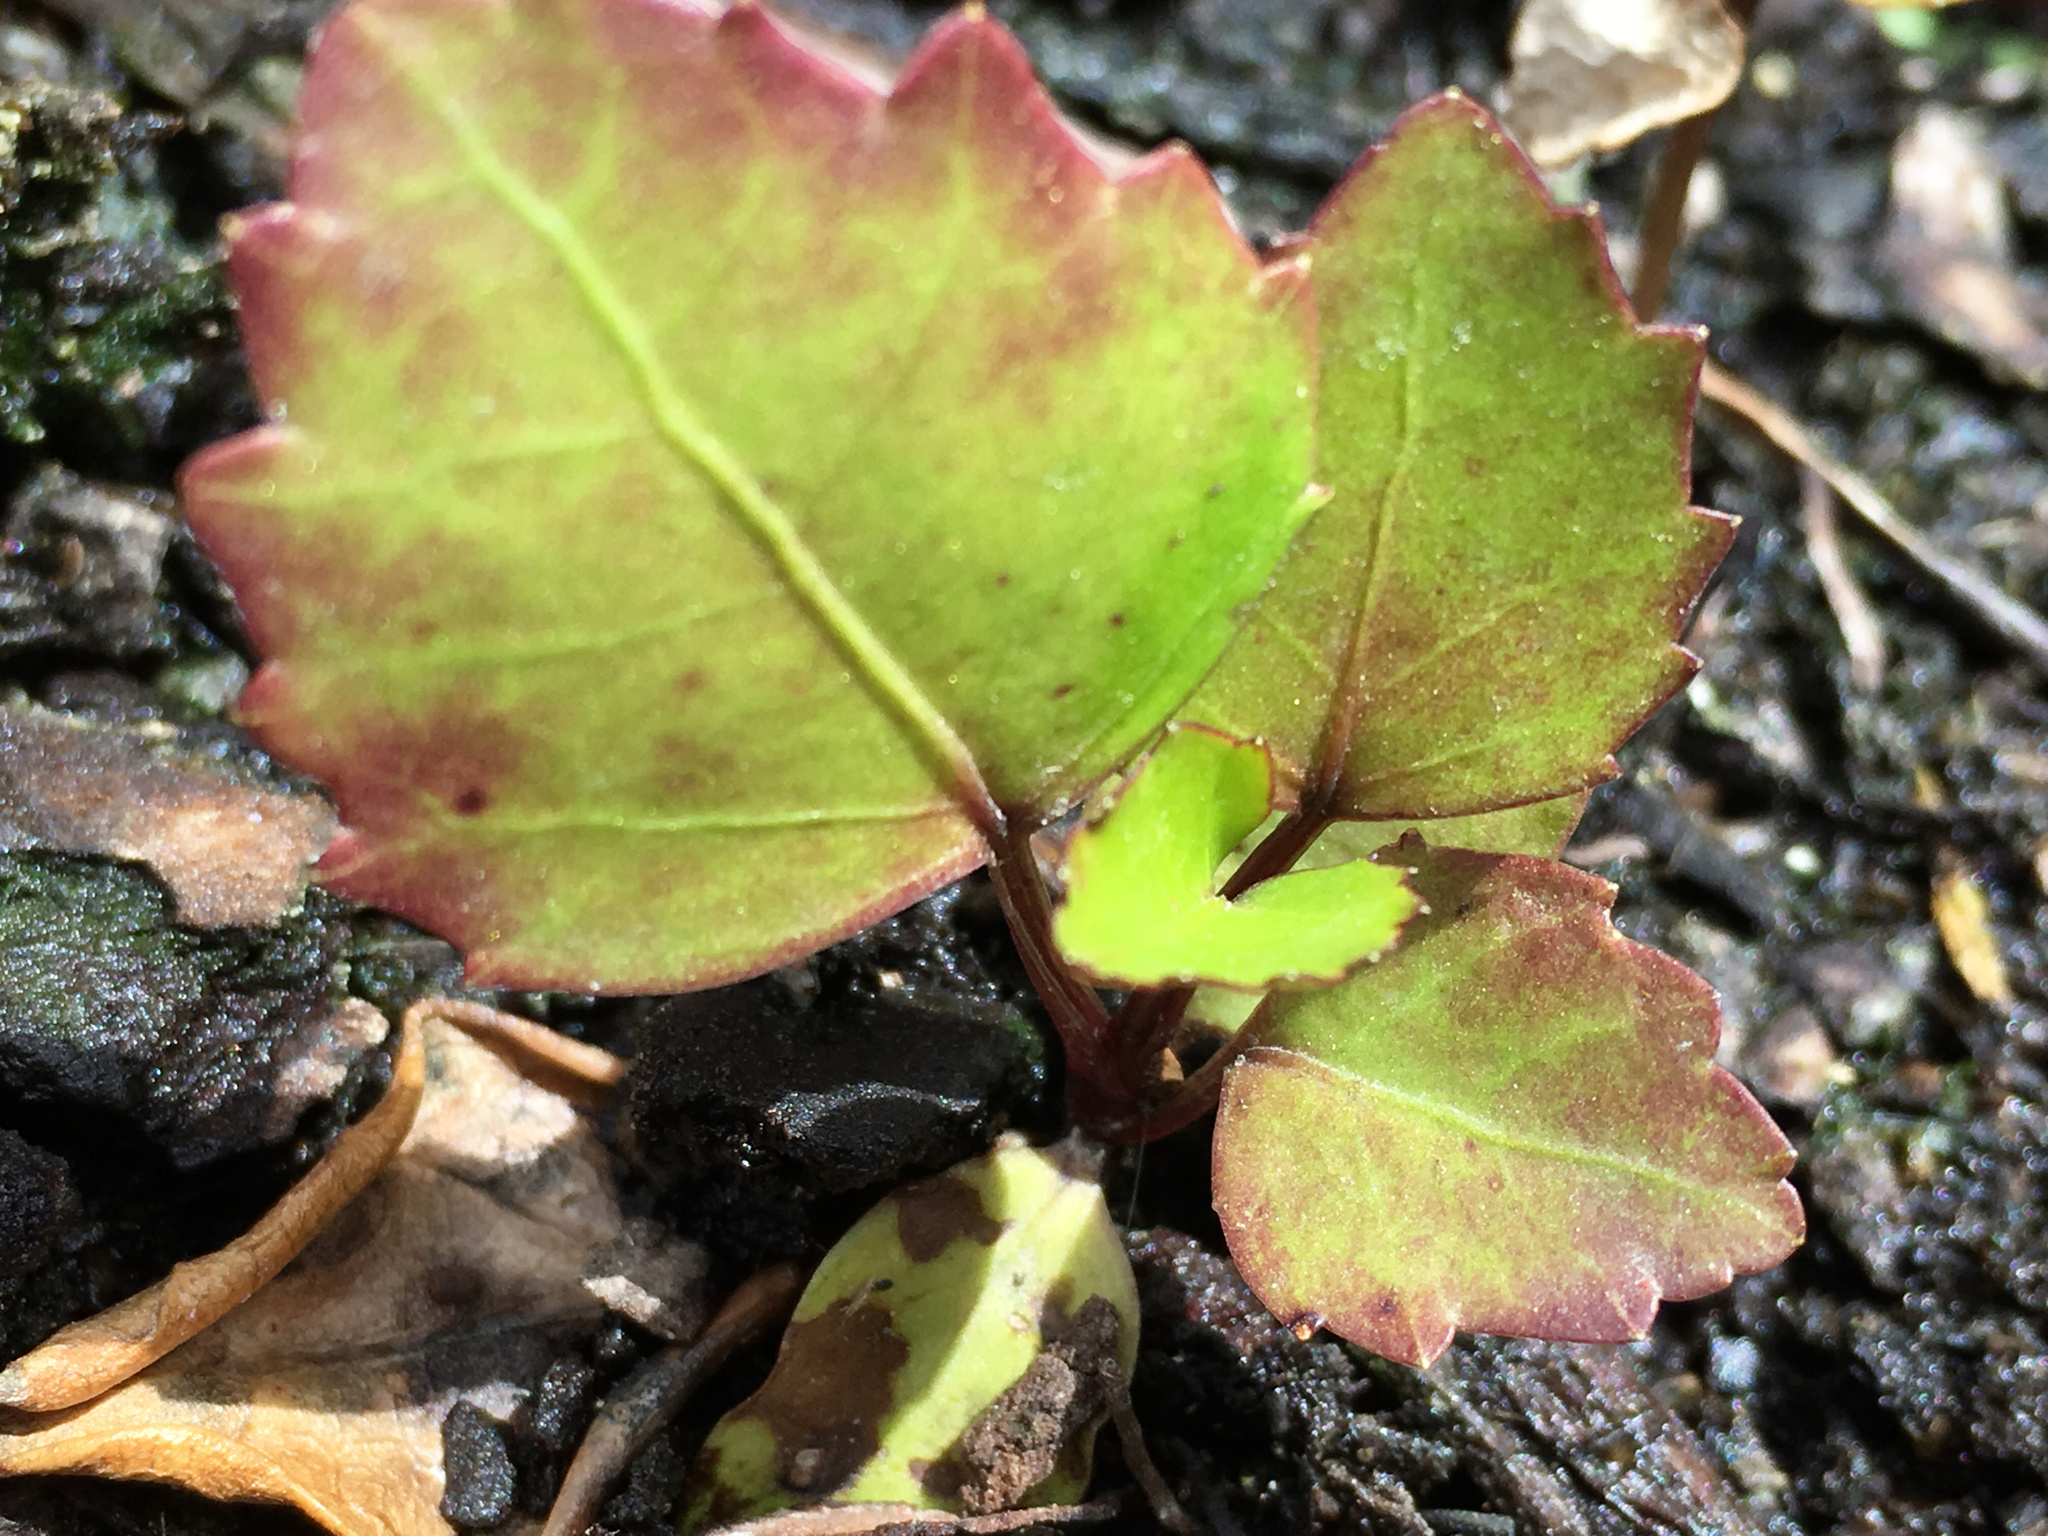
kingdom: Plantae
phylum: Tracheophyta
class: Magnoliopsida
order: Apiales
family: Araliaceae
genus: Neopanax
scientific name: Neopanax arboreus
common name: Five-fingers
